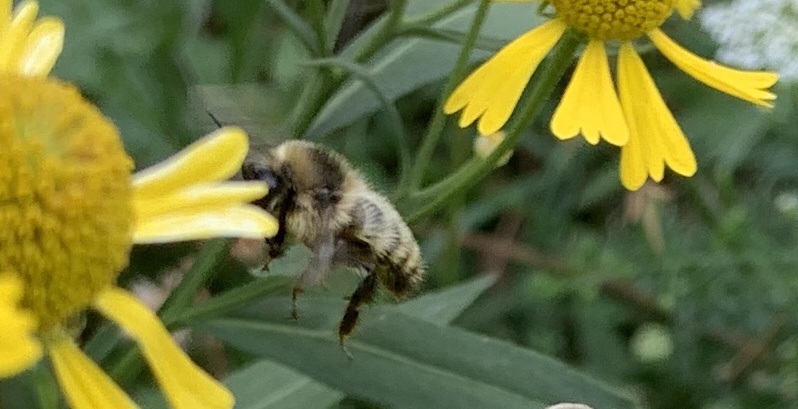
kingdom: Animalia
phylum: Arthropoda
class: Insecta
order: Hymenoptera
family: Apidae
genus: Bombus
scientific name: Bombus rufocinctus
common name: Red-belted bumble bee
